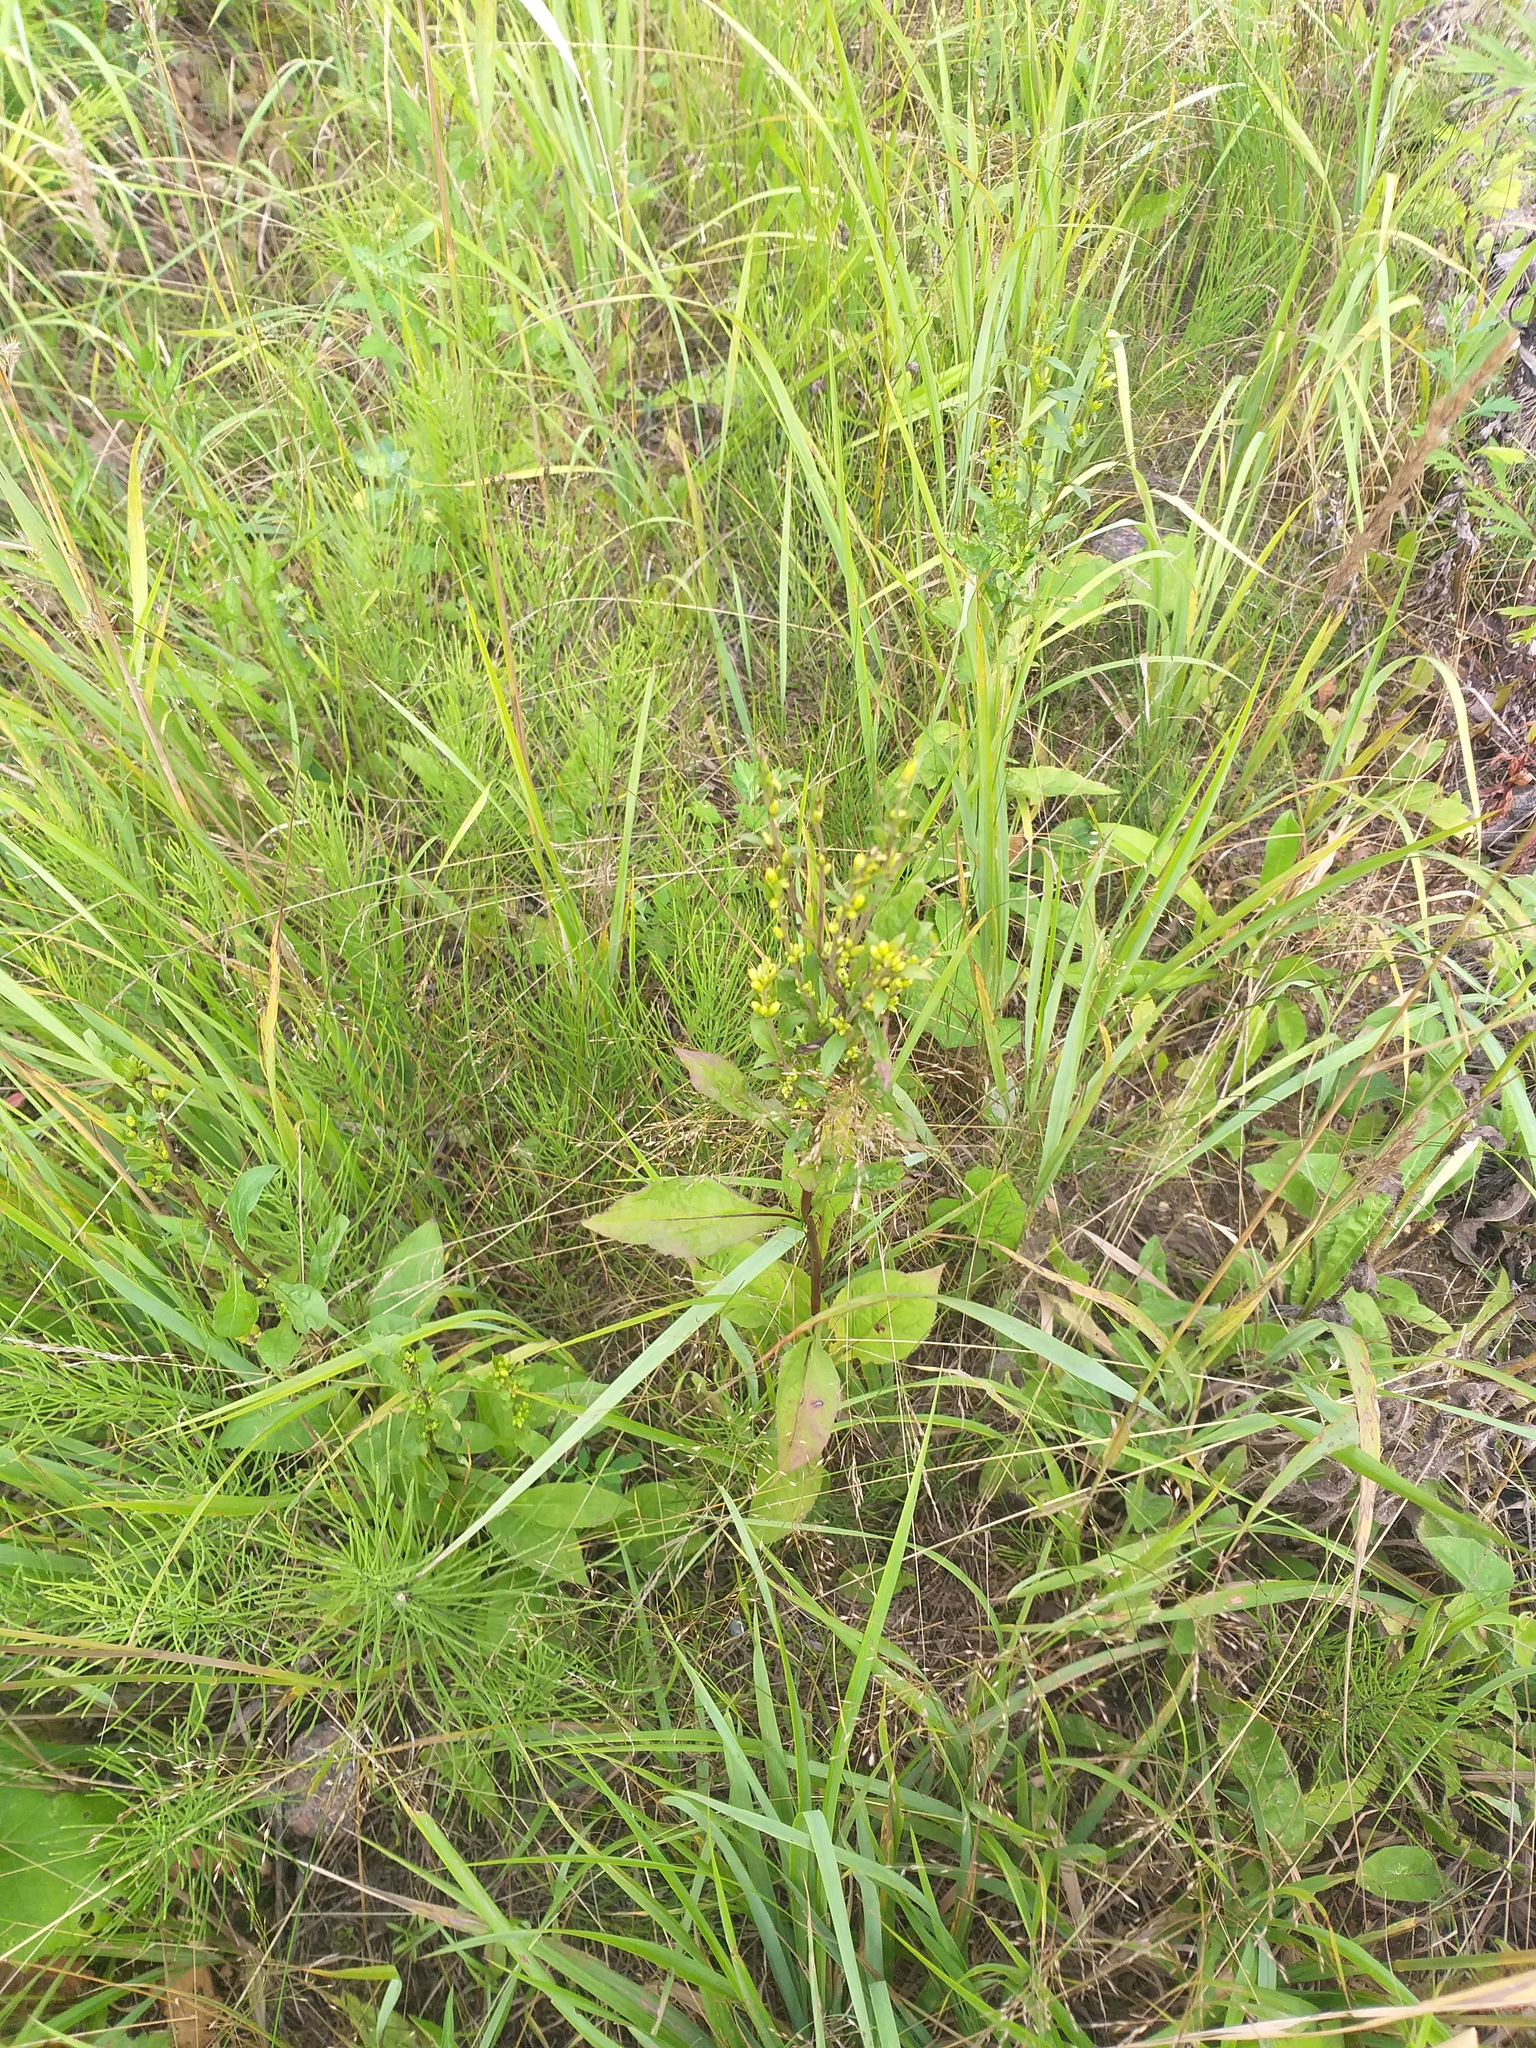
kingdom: Plantae
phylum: Tracheophyta
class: Magnoliopsida
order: Asterales
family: Asteraceae
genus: Solidago
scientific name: Solidago virgaurea
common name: Goldenrod
